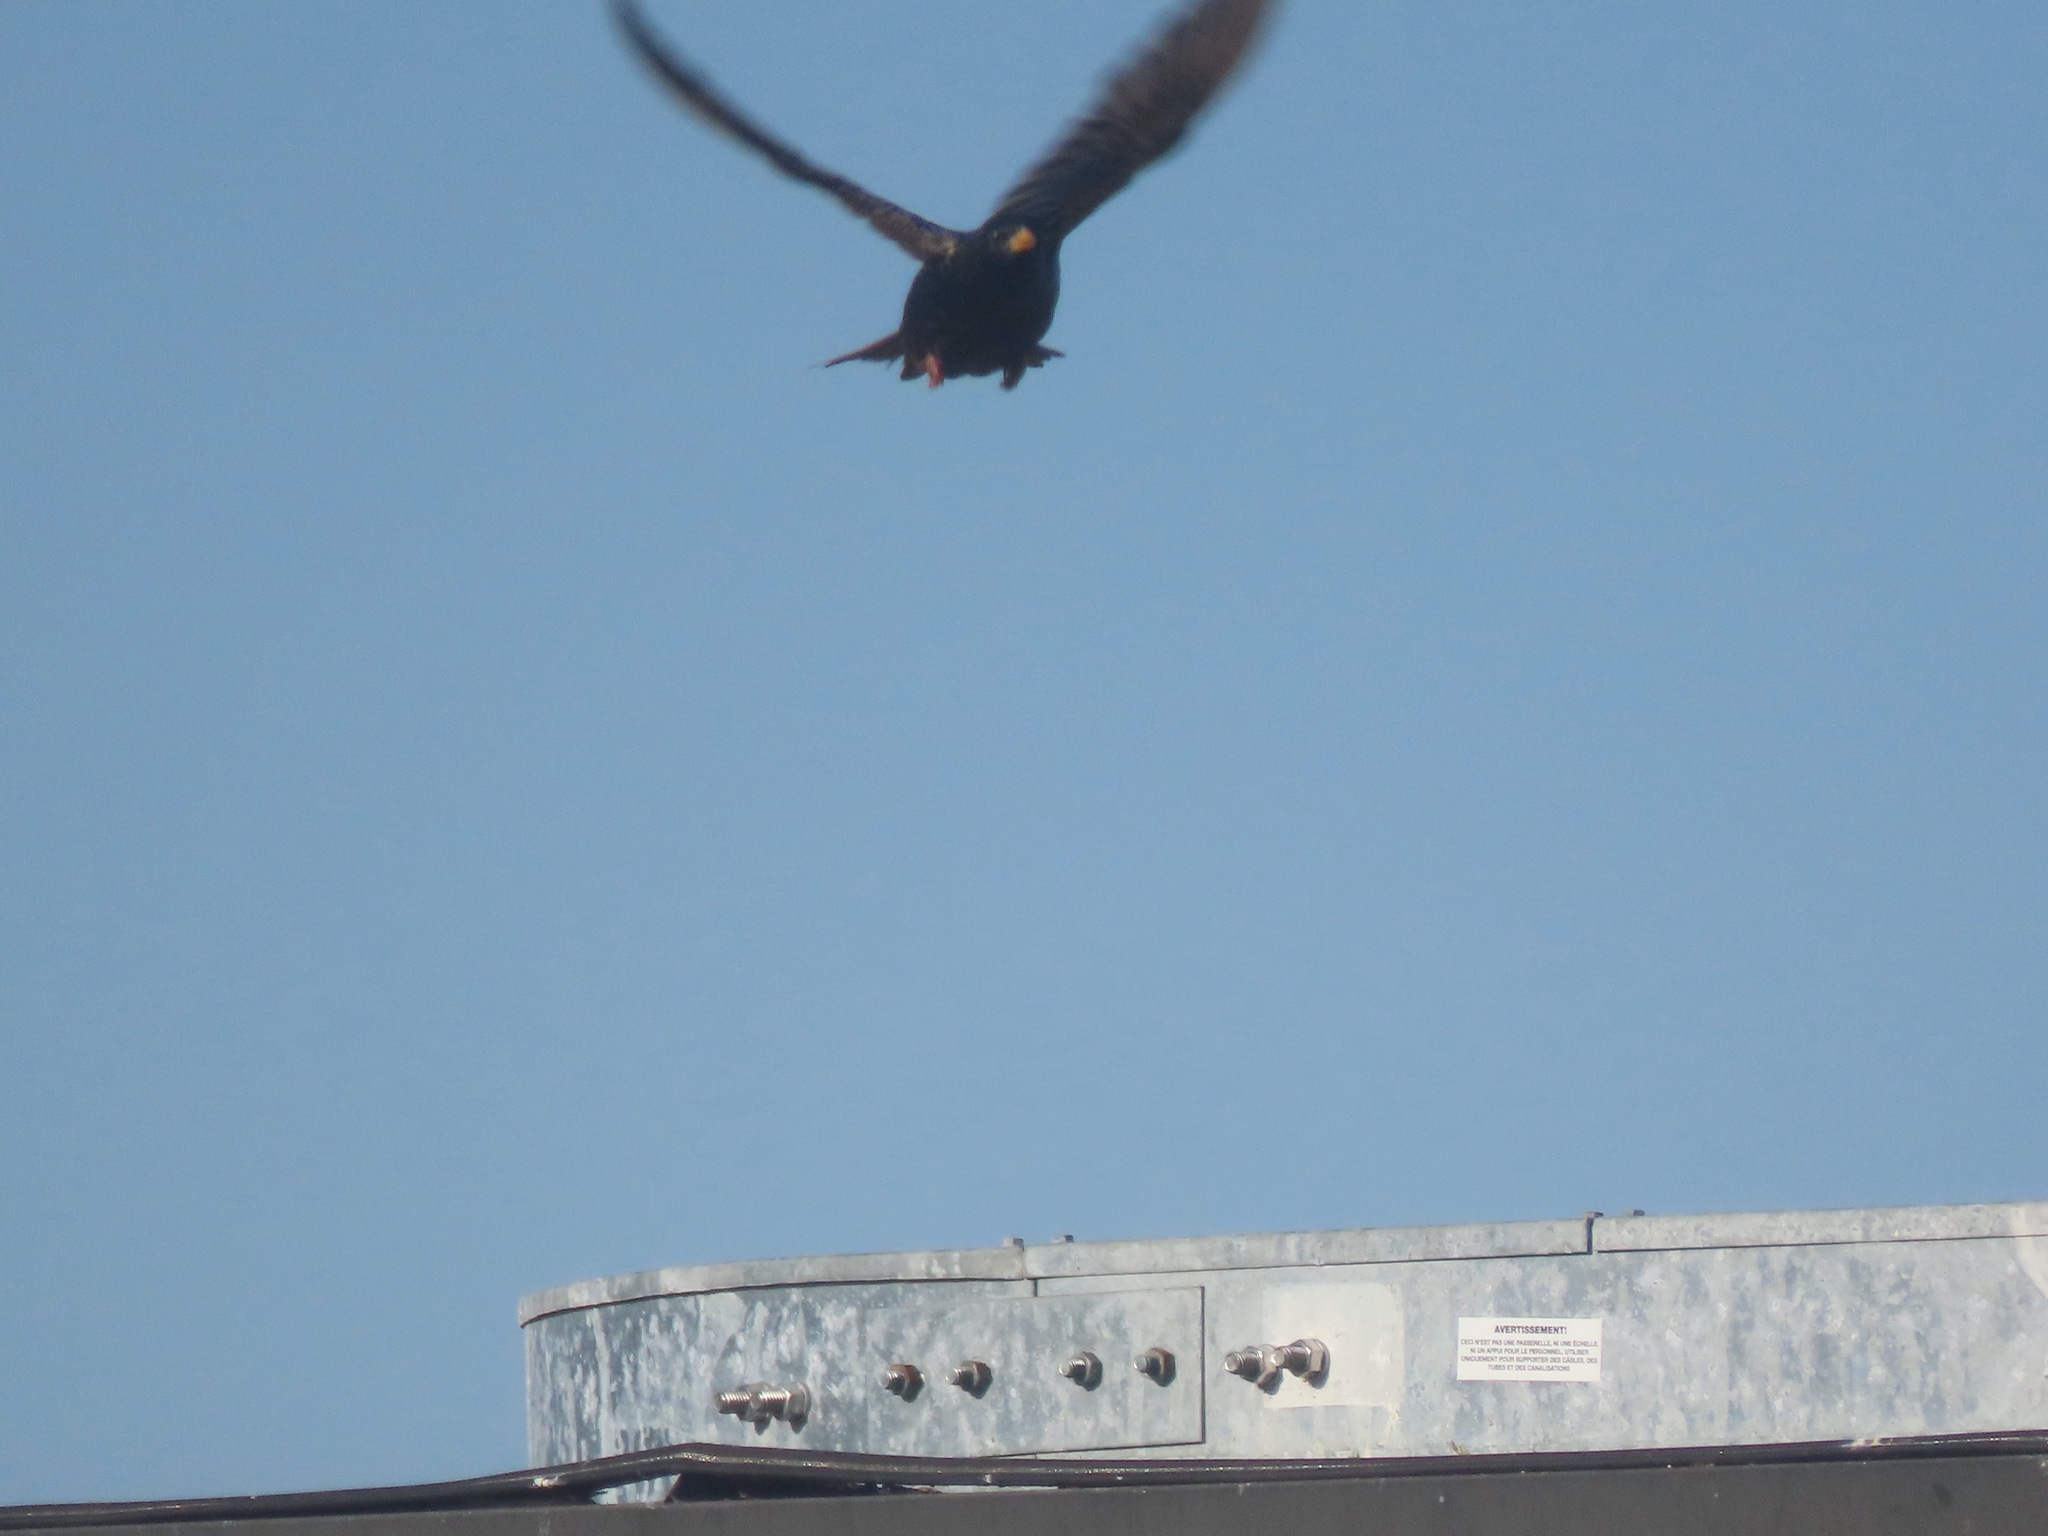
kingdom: Animalia
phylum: Chordata
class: Aves
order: Passeriformes
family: Sturnidae
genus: Sturnus
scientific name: Sturnus vulgaris
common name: Common starling
